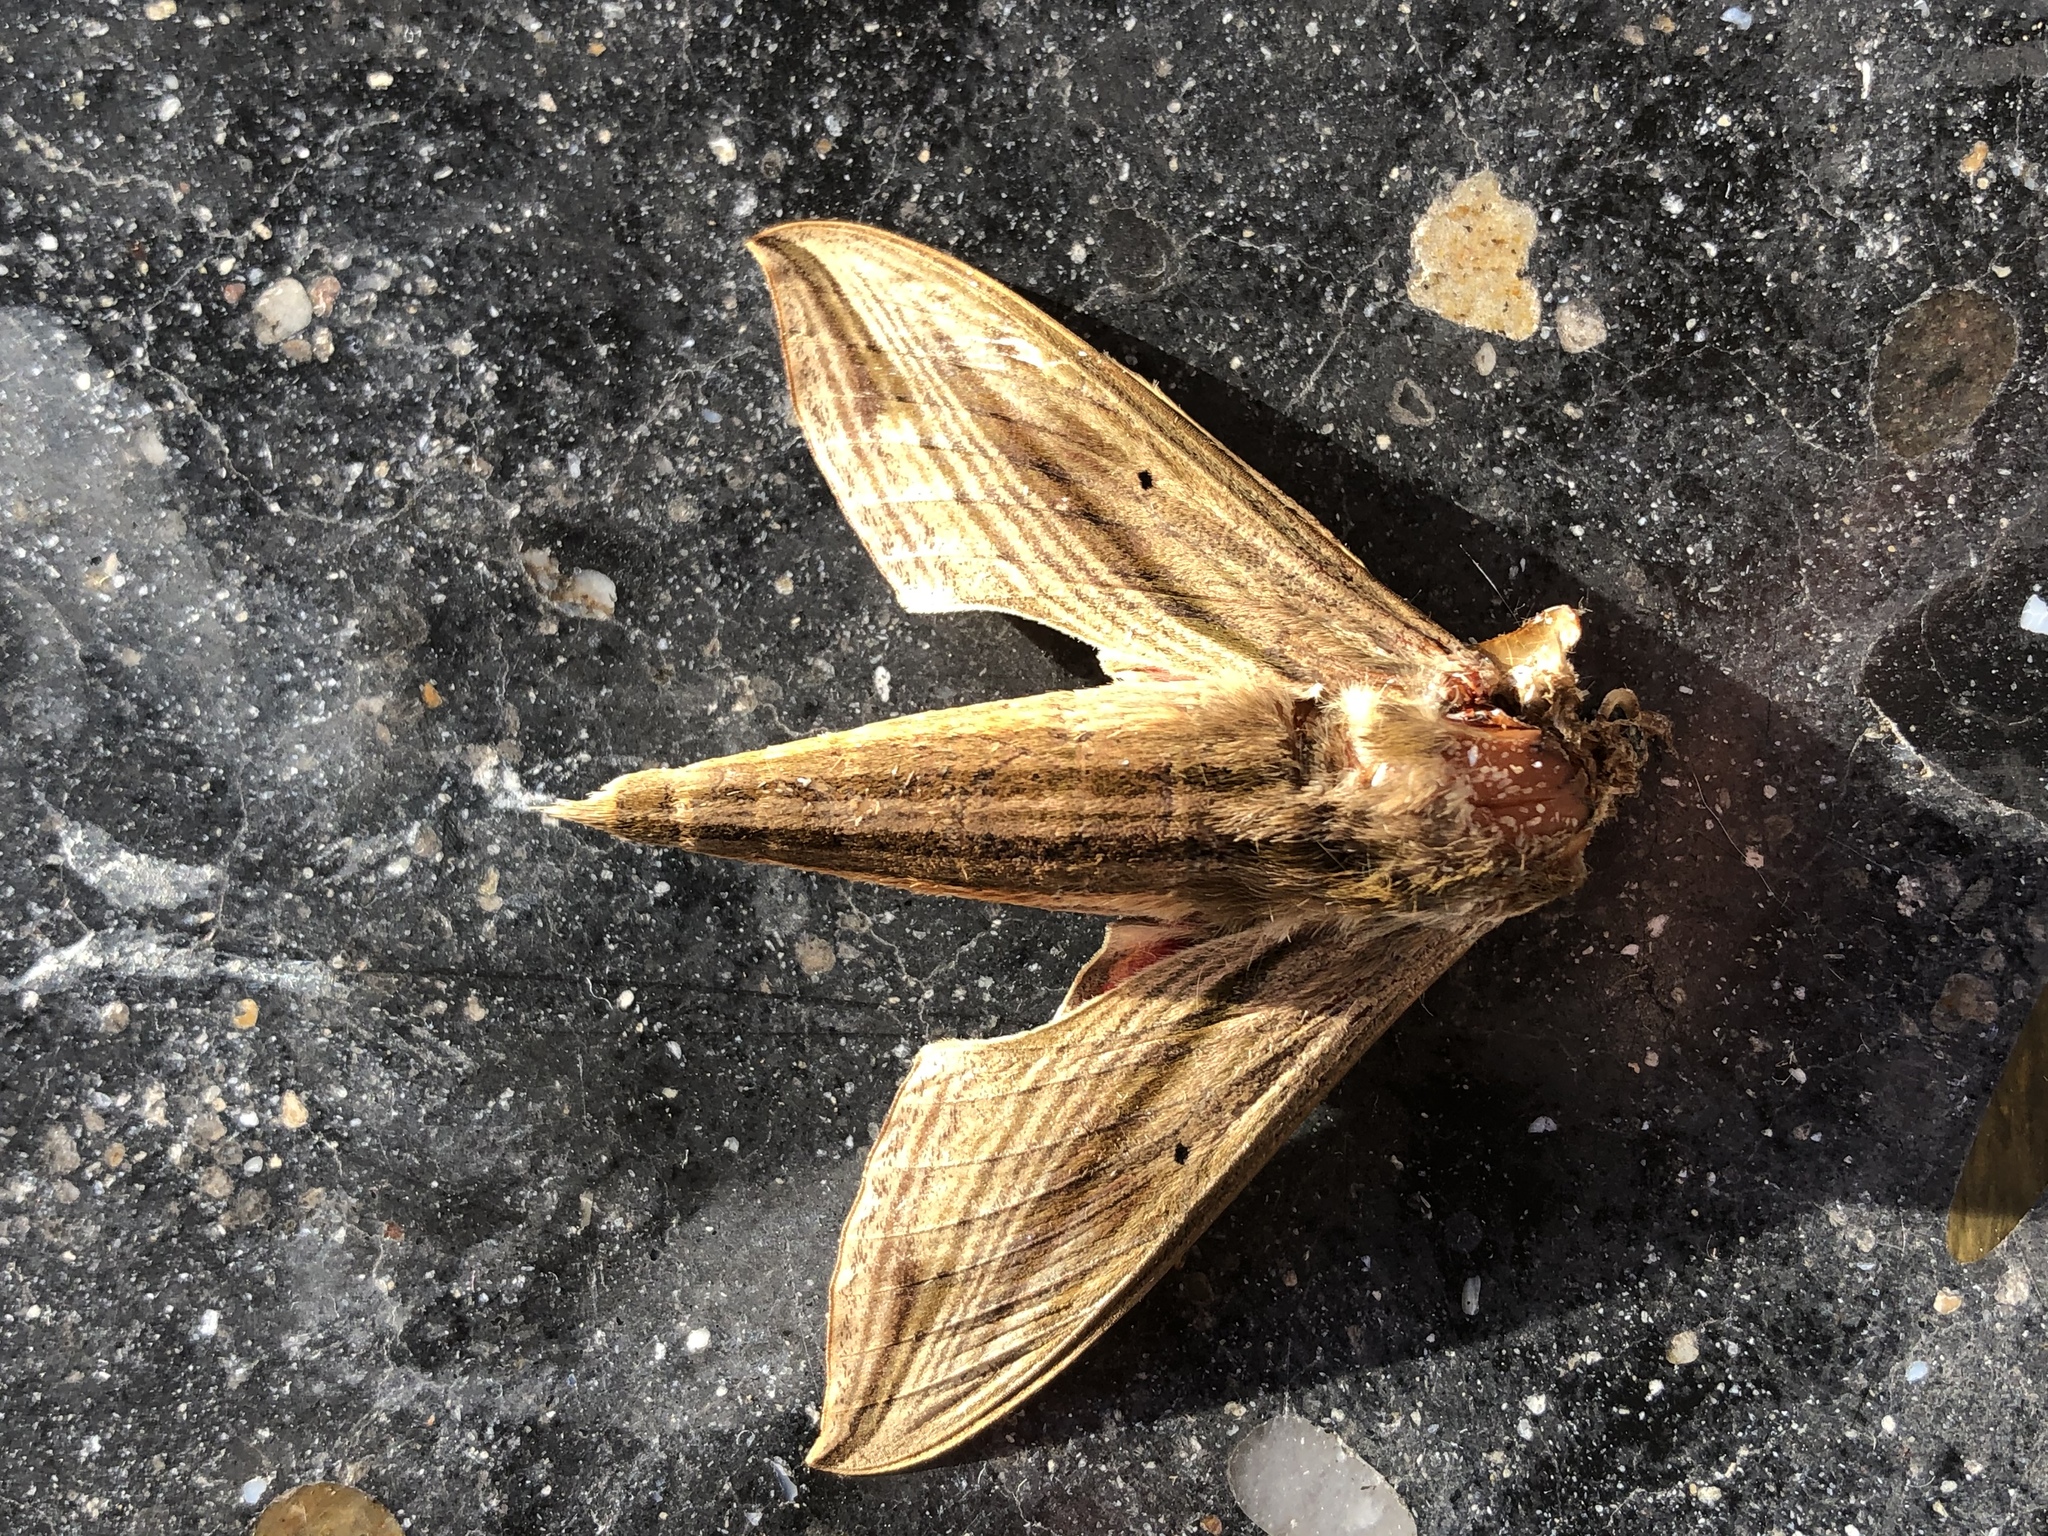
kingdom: Animalia
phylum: Arthropoda
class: Insecta
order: Lepidoptera
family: Sphingidae
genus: Hippotion
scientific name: Hippotion eson
